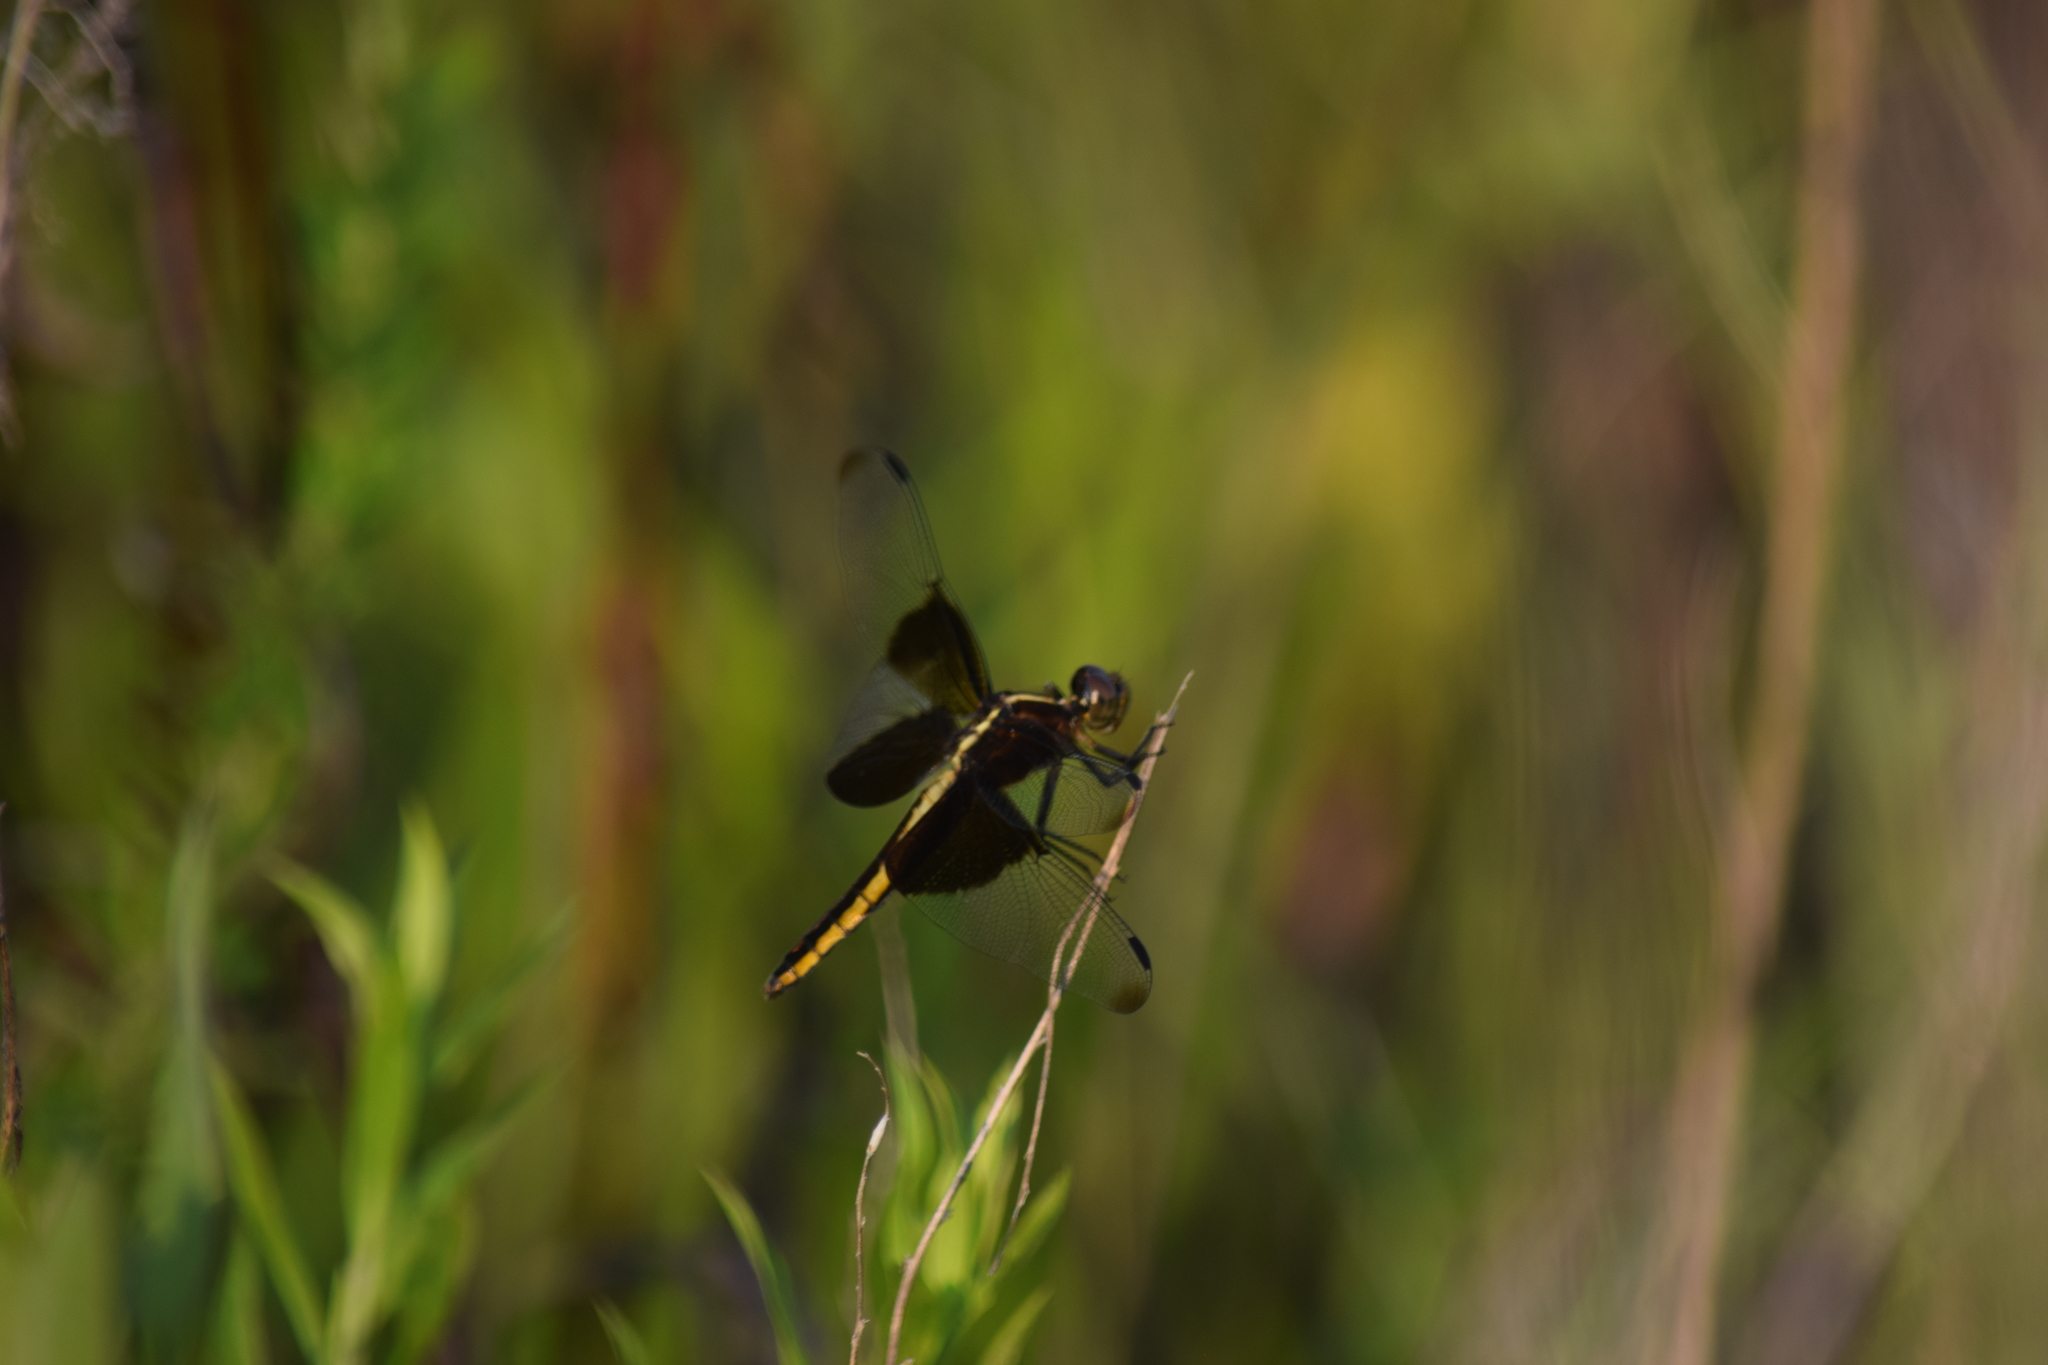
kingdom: Animalia
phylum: Arthropoda
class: Insecta
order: Odonata
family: Libellulidae
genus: Libellula
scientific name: Libellula luctuosa
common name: Widow skimmer
